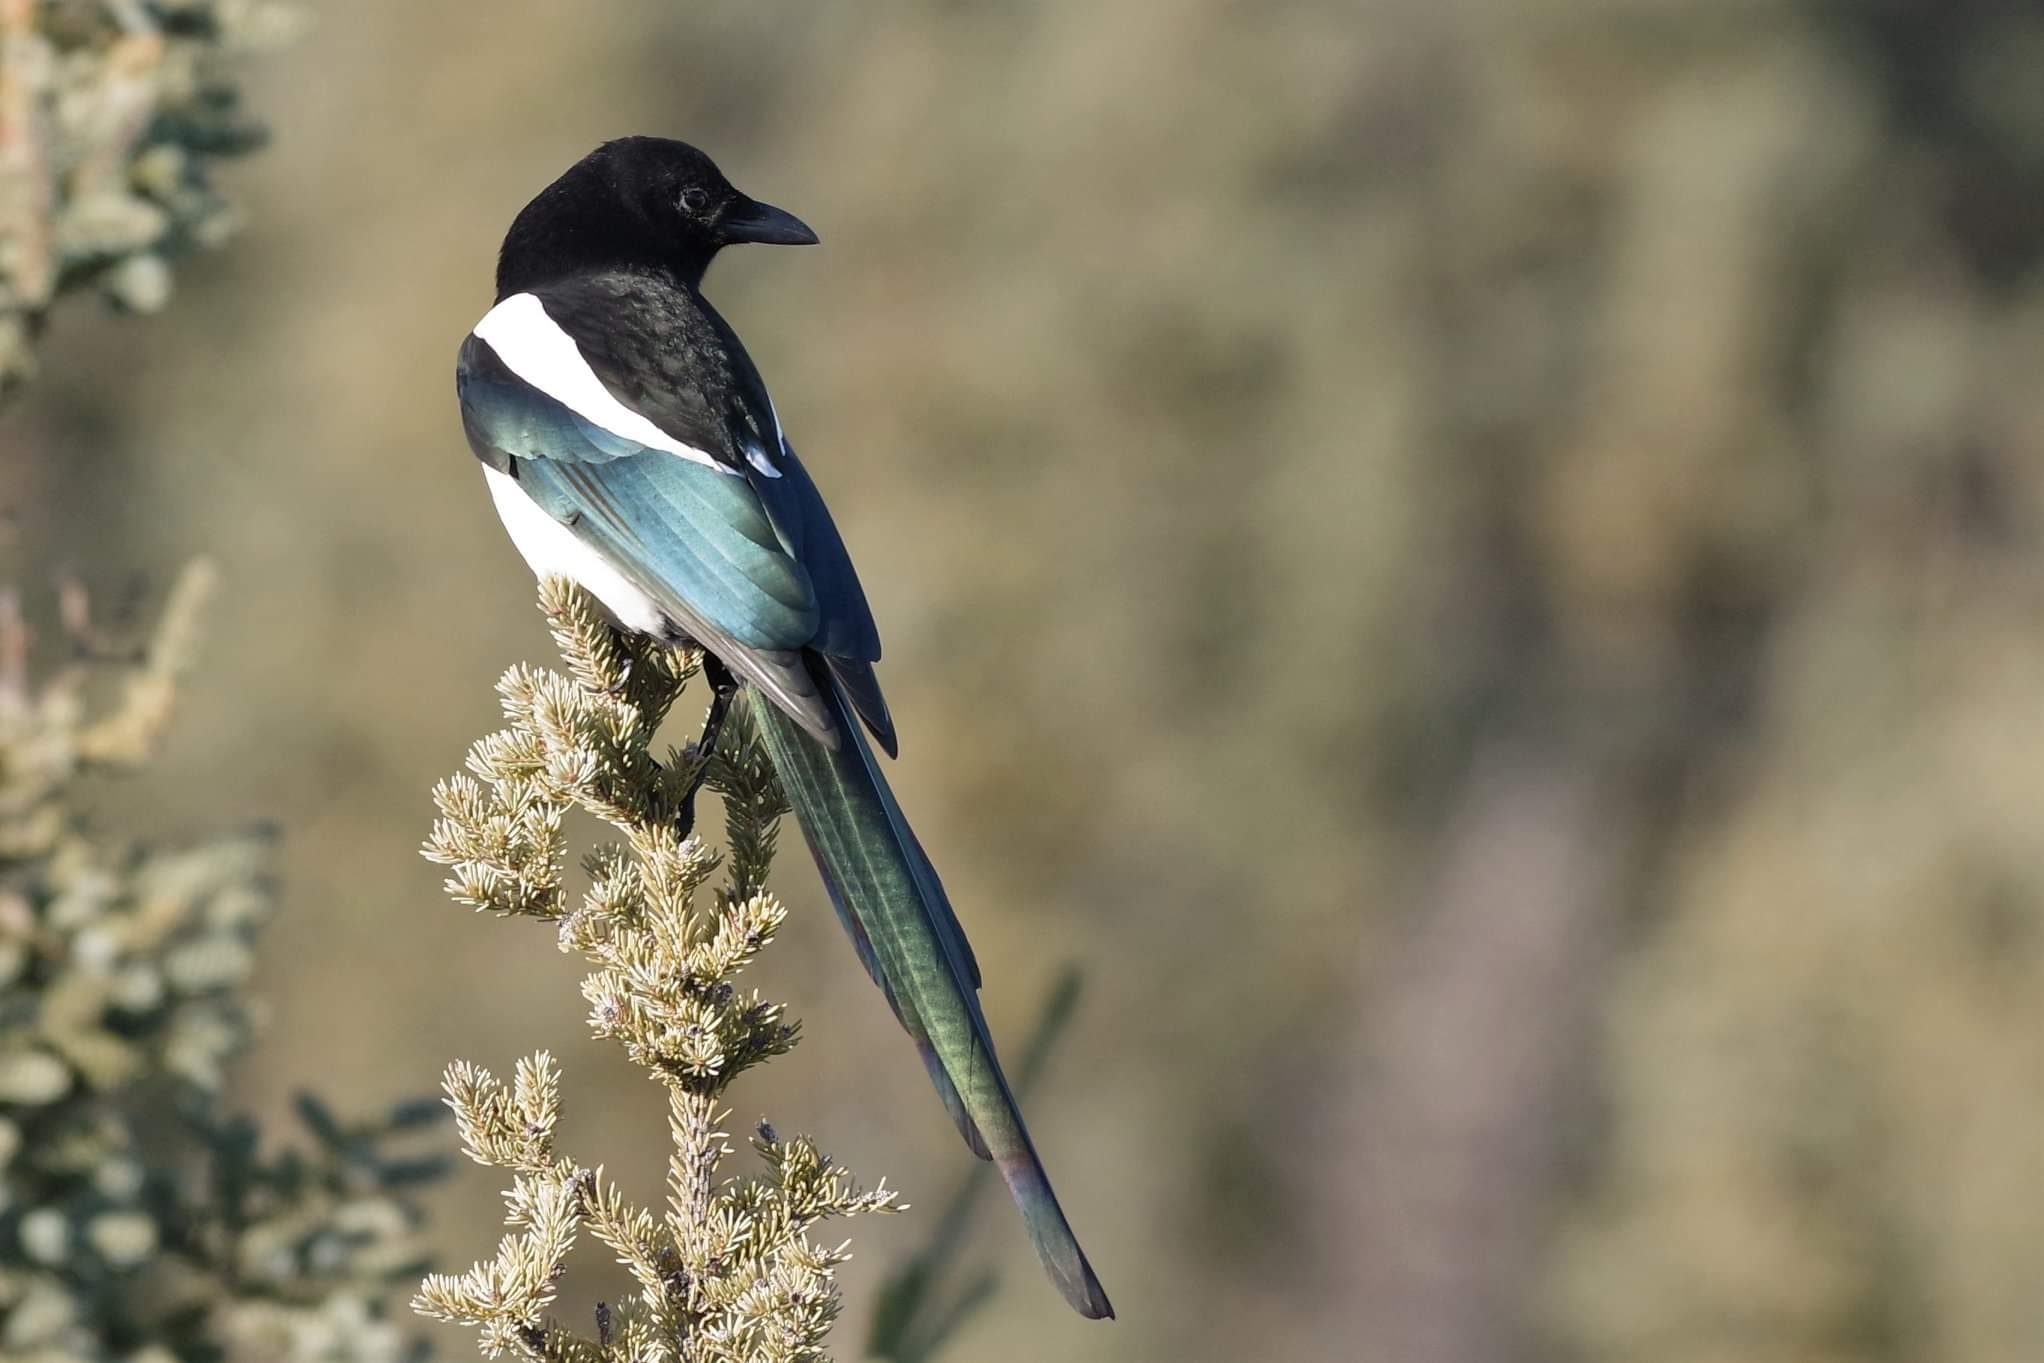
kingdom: Animalia
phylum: Chordata
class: Aves
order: Passeriformes
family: Corvidae
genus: Pica
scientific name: Pica hudsonia
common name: Black-billed magpie
